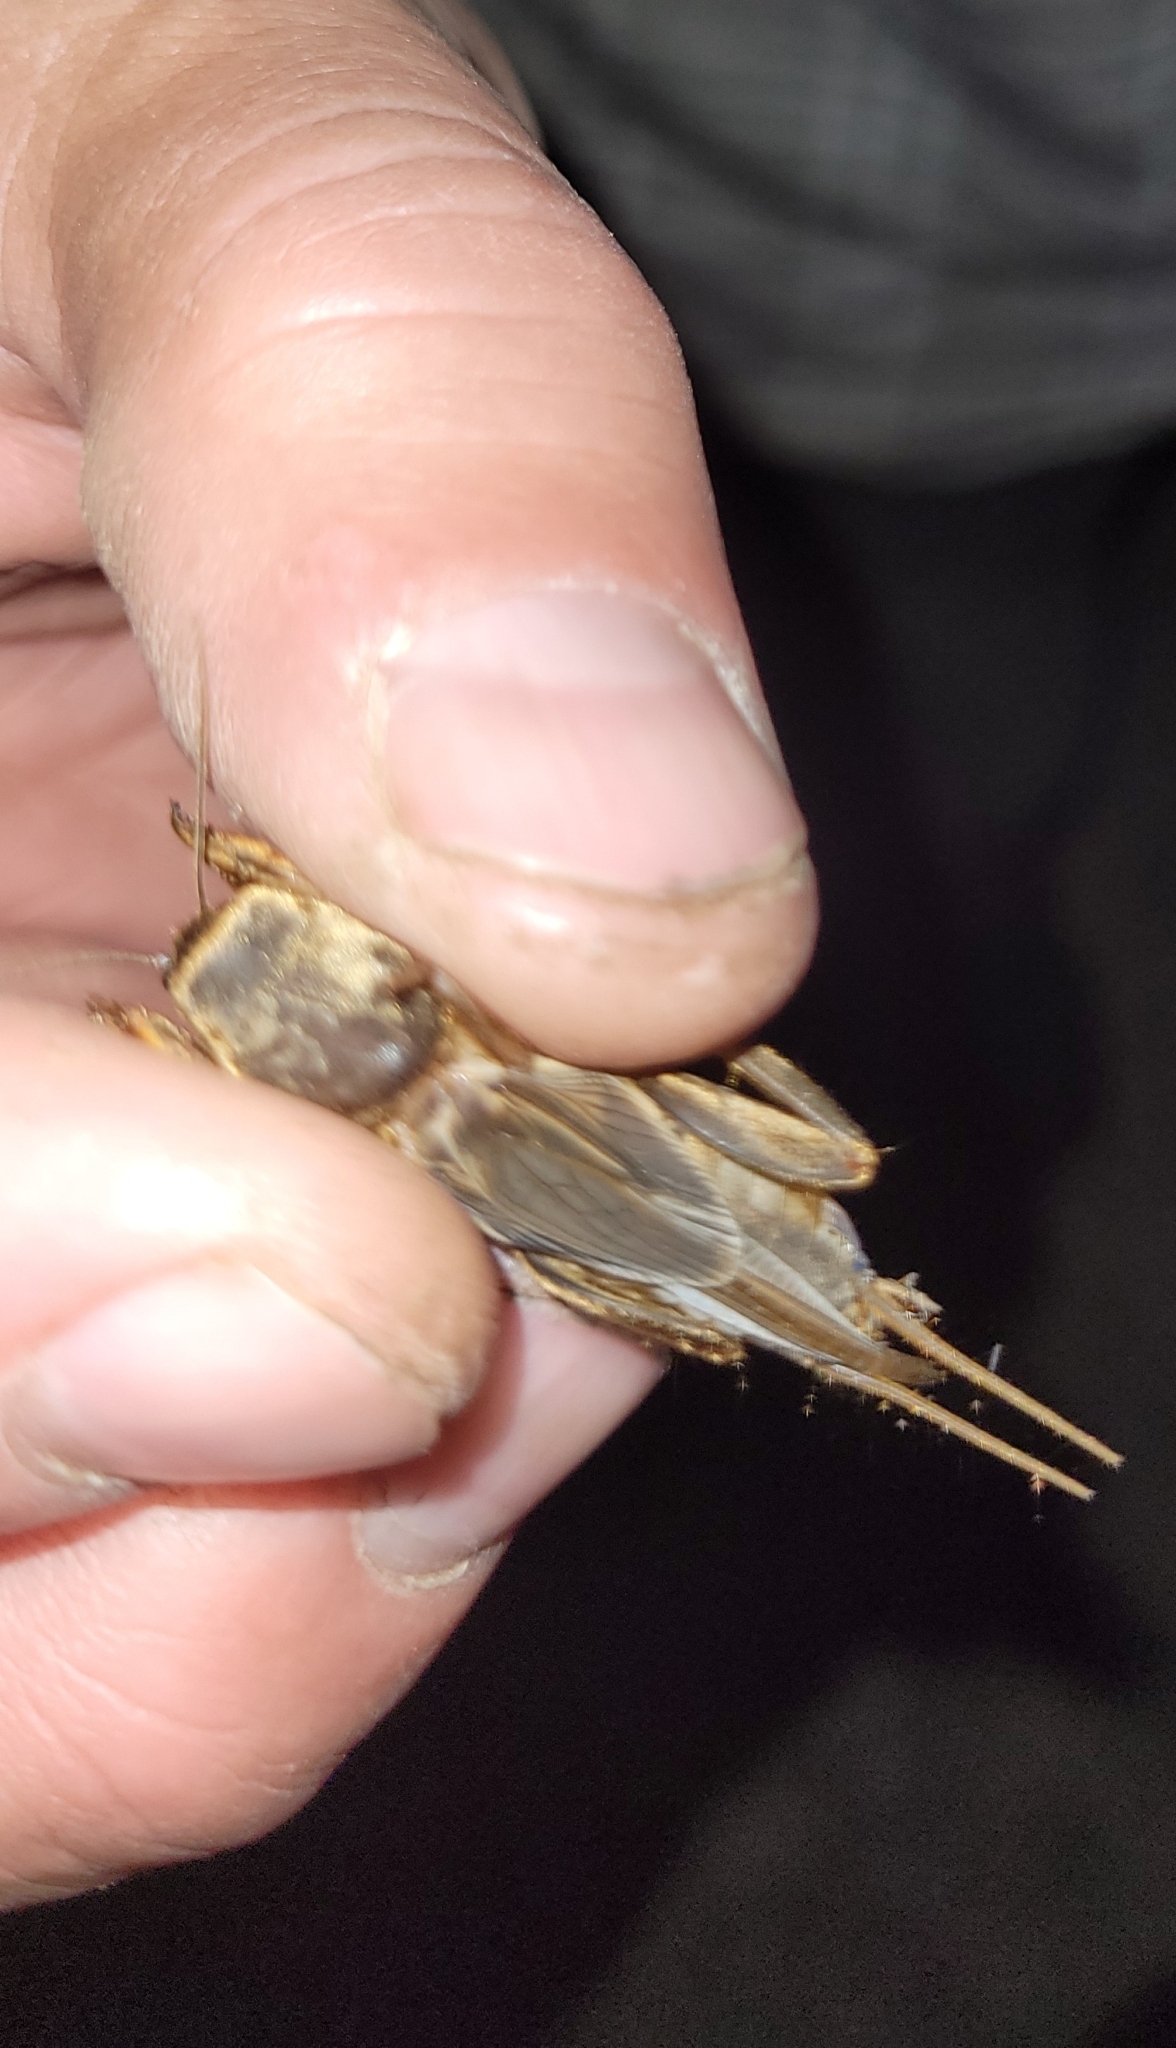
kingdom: Animalia
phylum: Arthropoda
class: Insecta
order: Orthoptera
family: Gryllotalpidae
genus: Gryllotalpa
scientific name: Gryllotalpa orientalis
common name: Grasshopper
